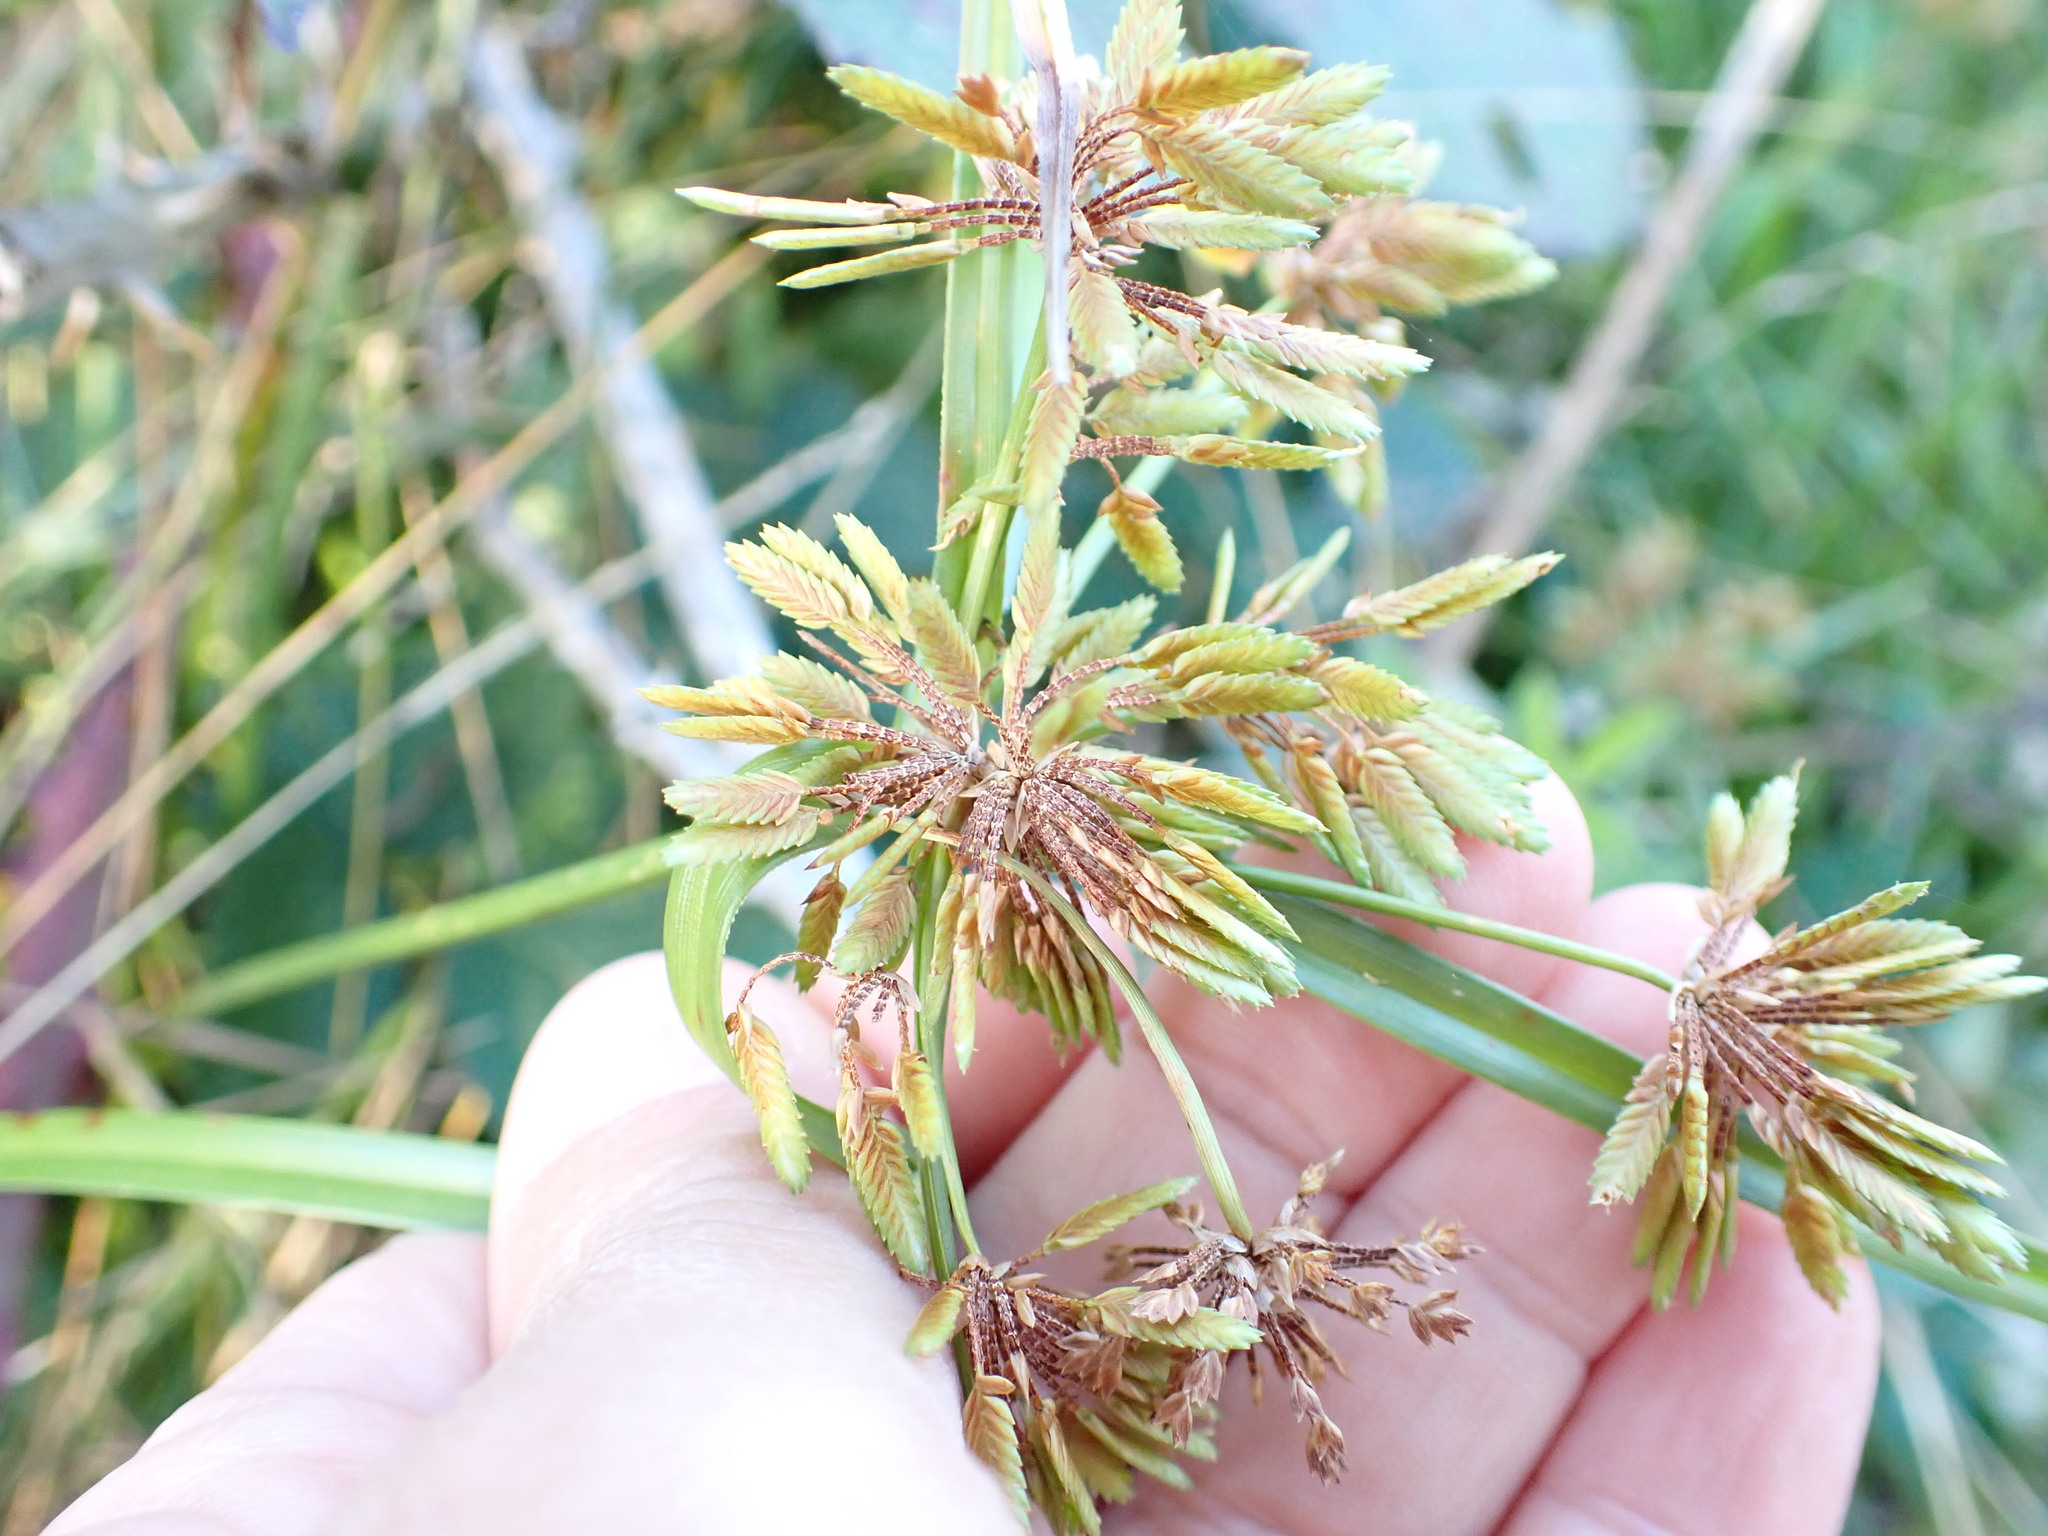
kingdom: Plantae
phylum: Tracheophyta
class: Liliopsida
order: Poales
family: Cyperaceae
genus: Cyperus
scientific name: Cyperus eragrostis
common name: Tall flatsedge
